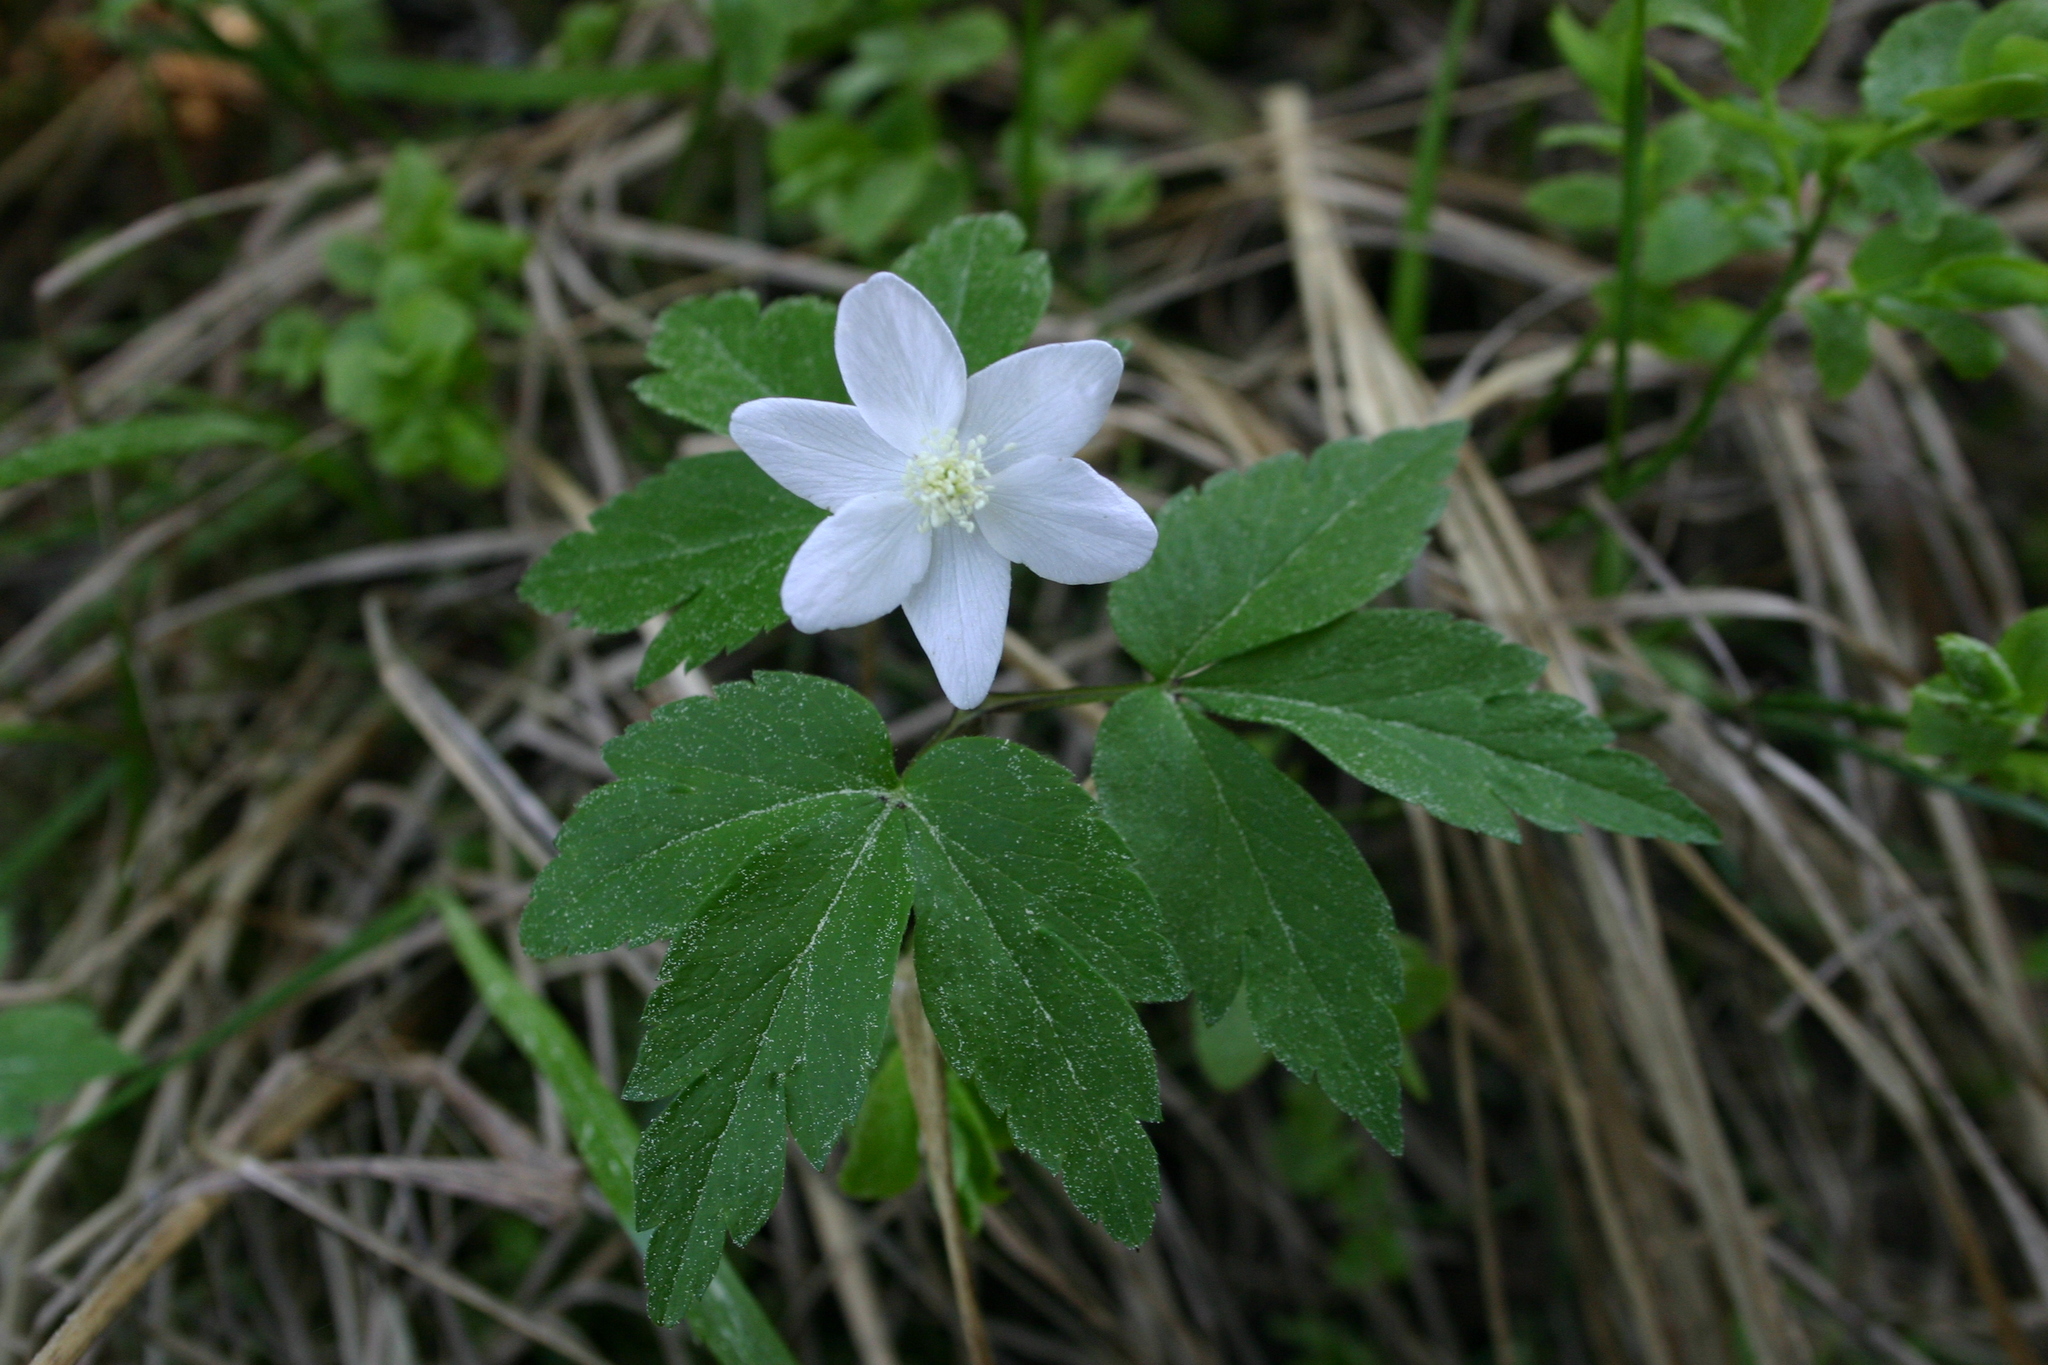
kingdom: Plantae
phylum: Tracheophyta
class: Magnoliopsida
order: Ranunculales
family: Ranunculaceae
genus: Anemone
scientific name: Anemone trifolia
